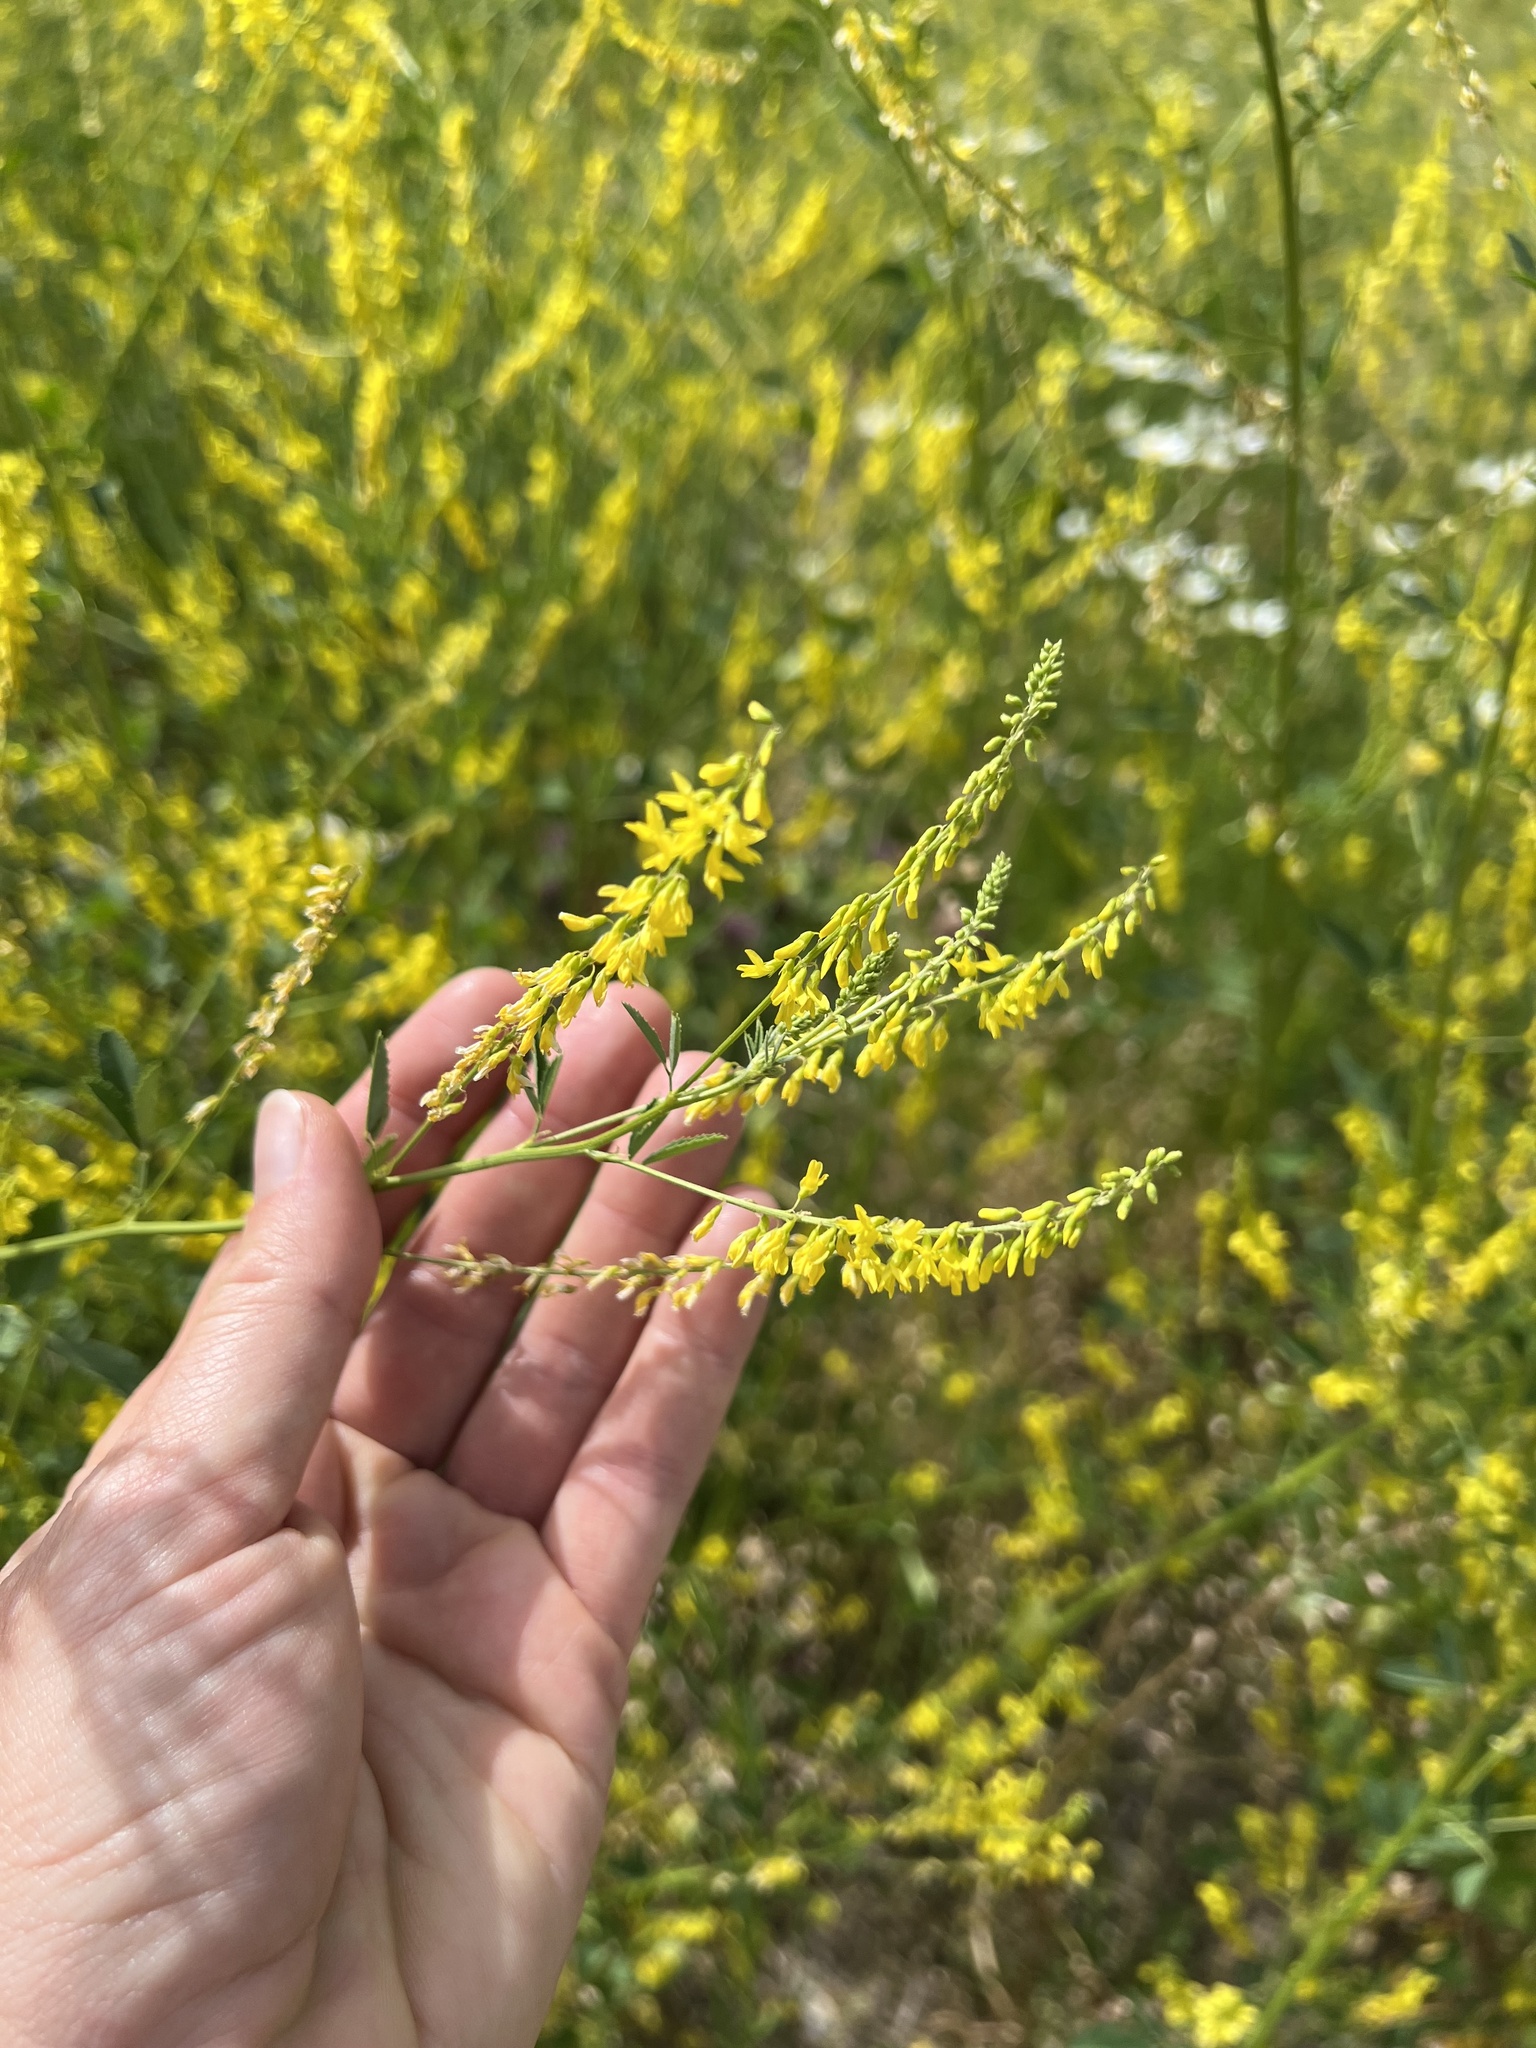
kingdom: Plantae
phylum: Tracheophyta
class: Magnoliopsida
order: Fabales
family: Fabaceae
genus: Melilotus
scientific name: Melilotus officinalis
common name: Sweetclover
